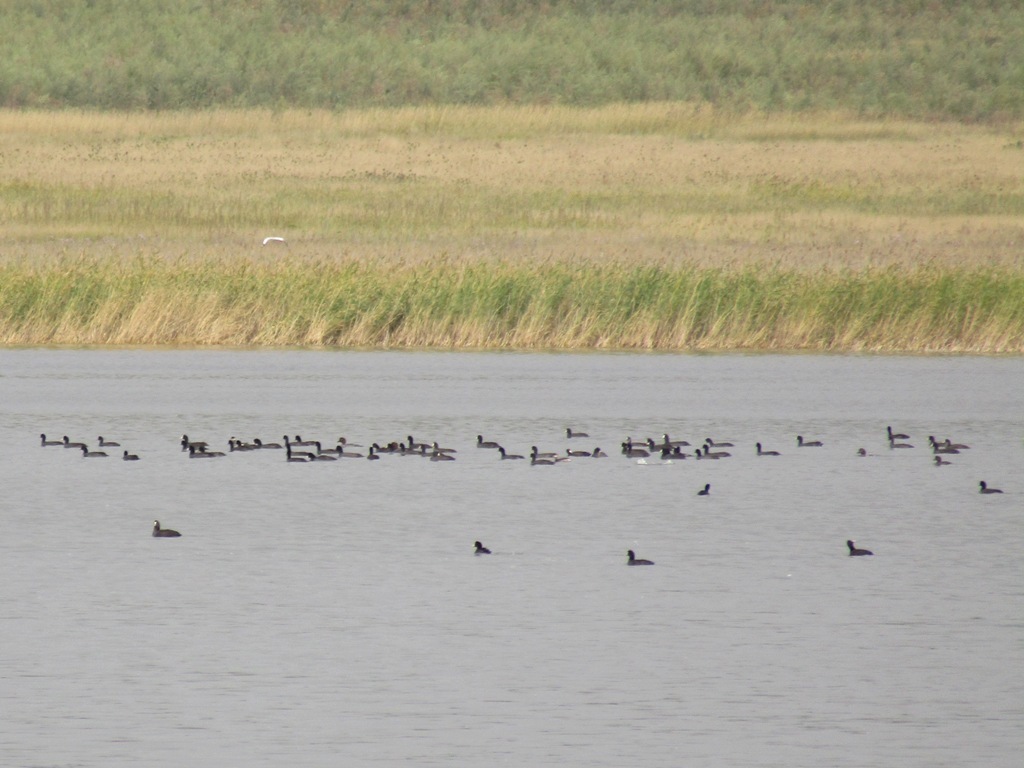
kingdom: Animalia
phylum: Chordata
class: Aves
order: Gruiformes
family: Rallidae
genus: Fulica
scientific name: Fulica atra
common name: Eurasian coot
